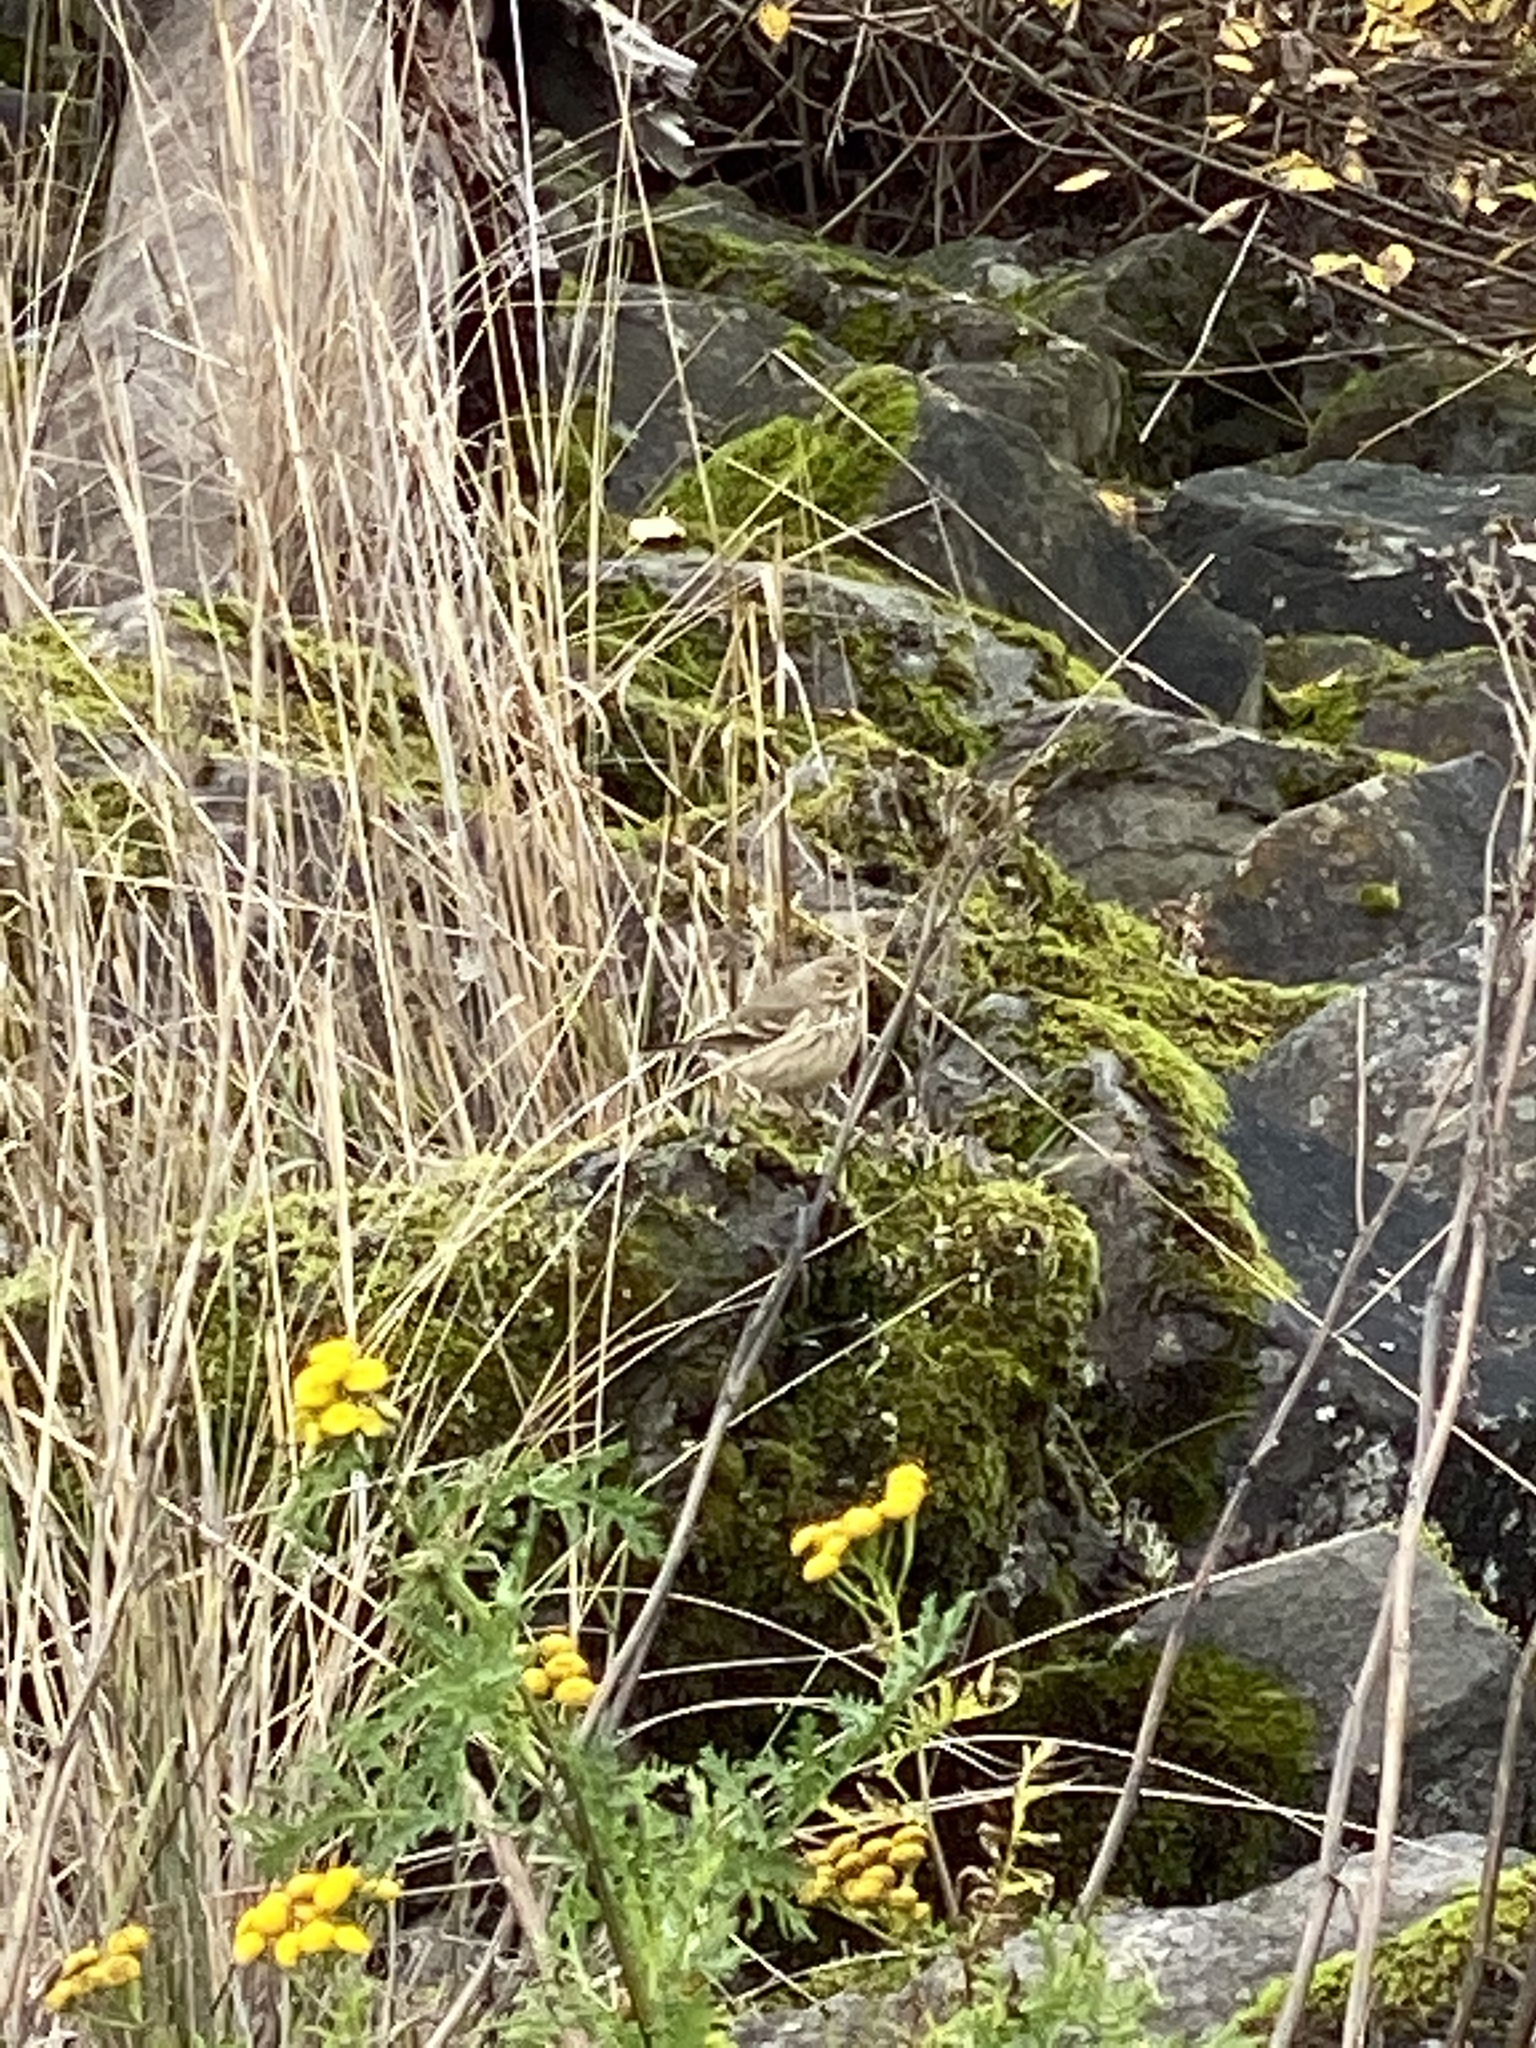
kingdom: Animalia
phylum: Chordata
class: Aves
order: Passeriformes
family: Motacillidae
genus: Anthus
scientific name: Anthus rubescens
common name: Buff-bellied pipit
